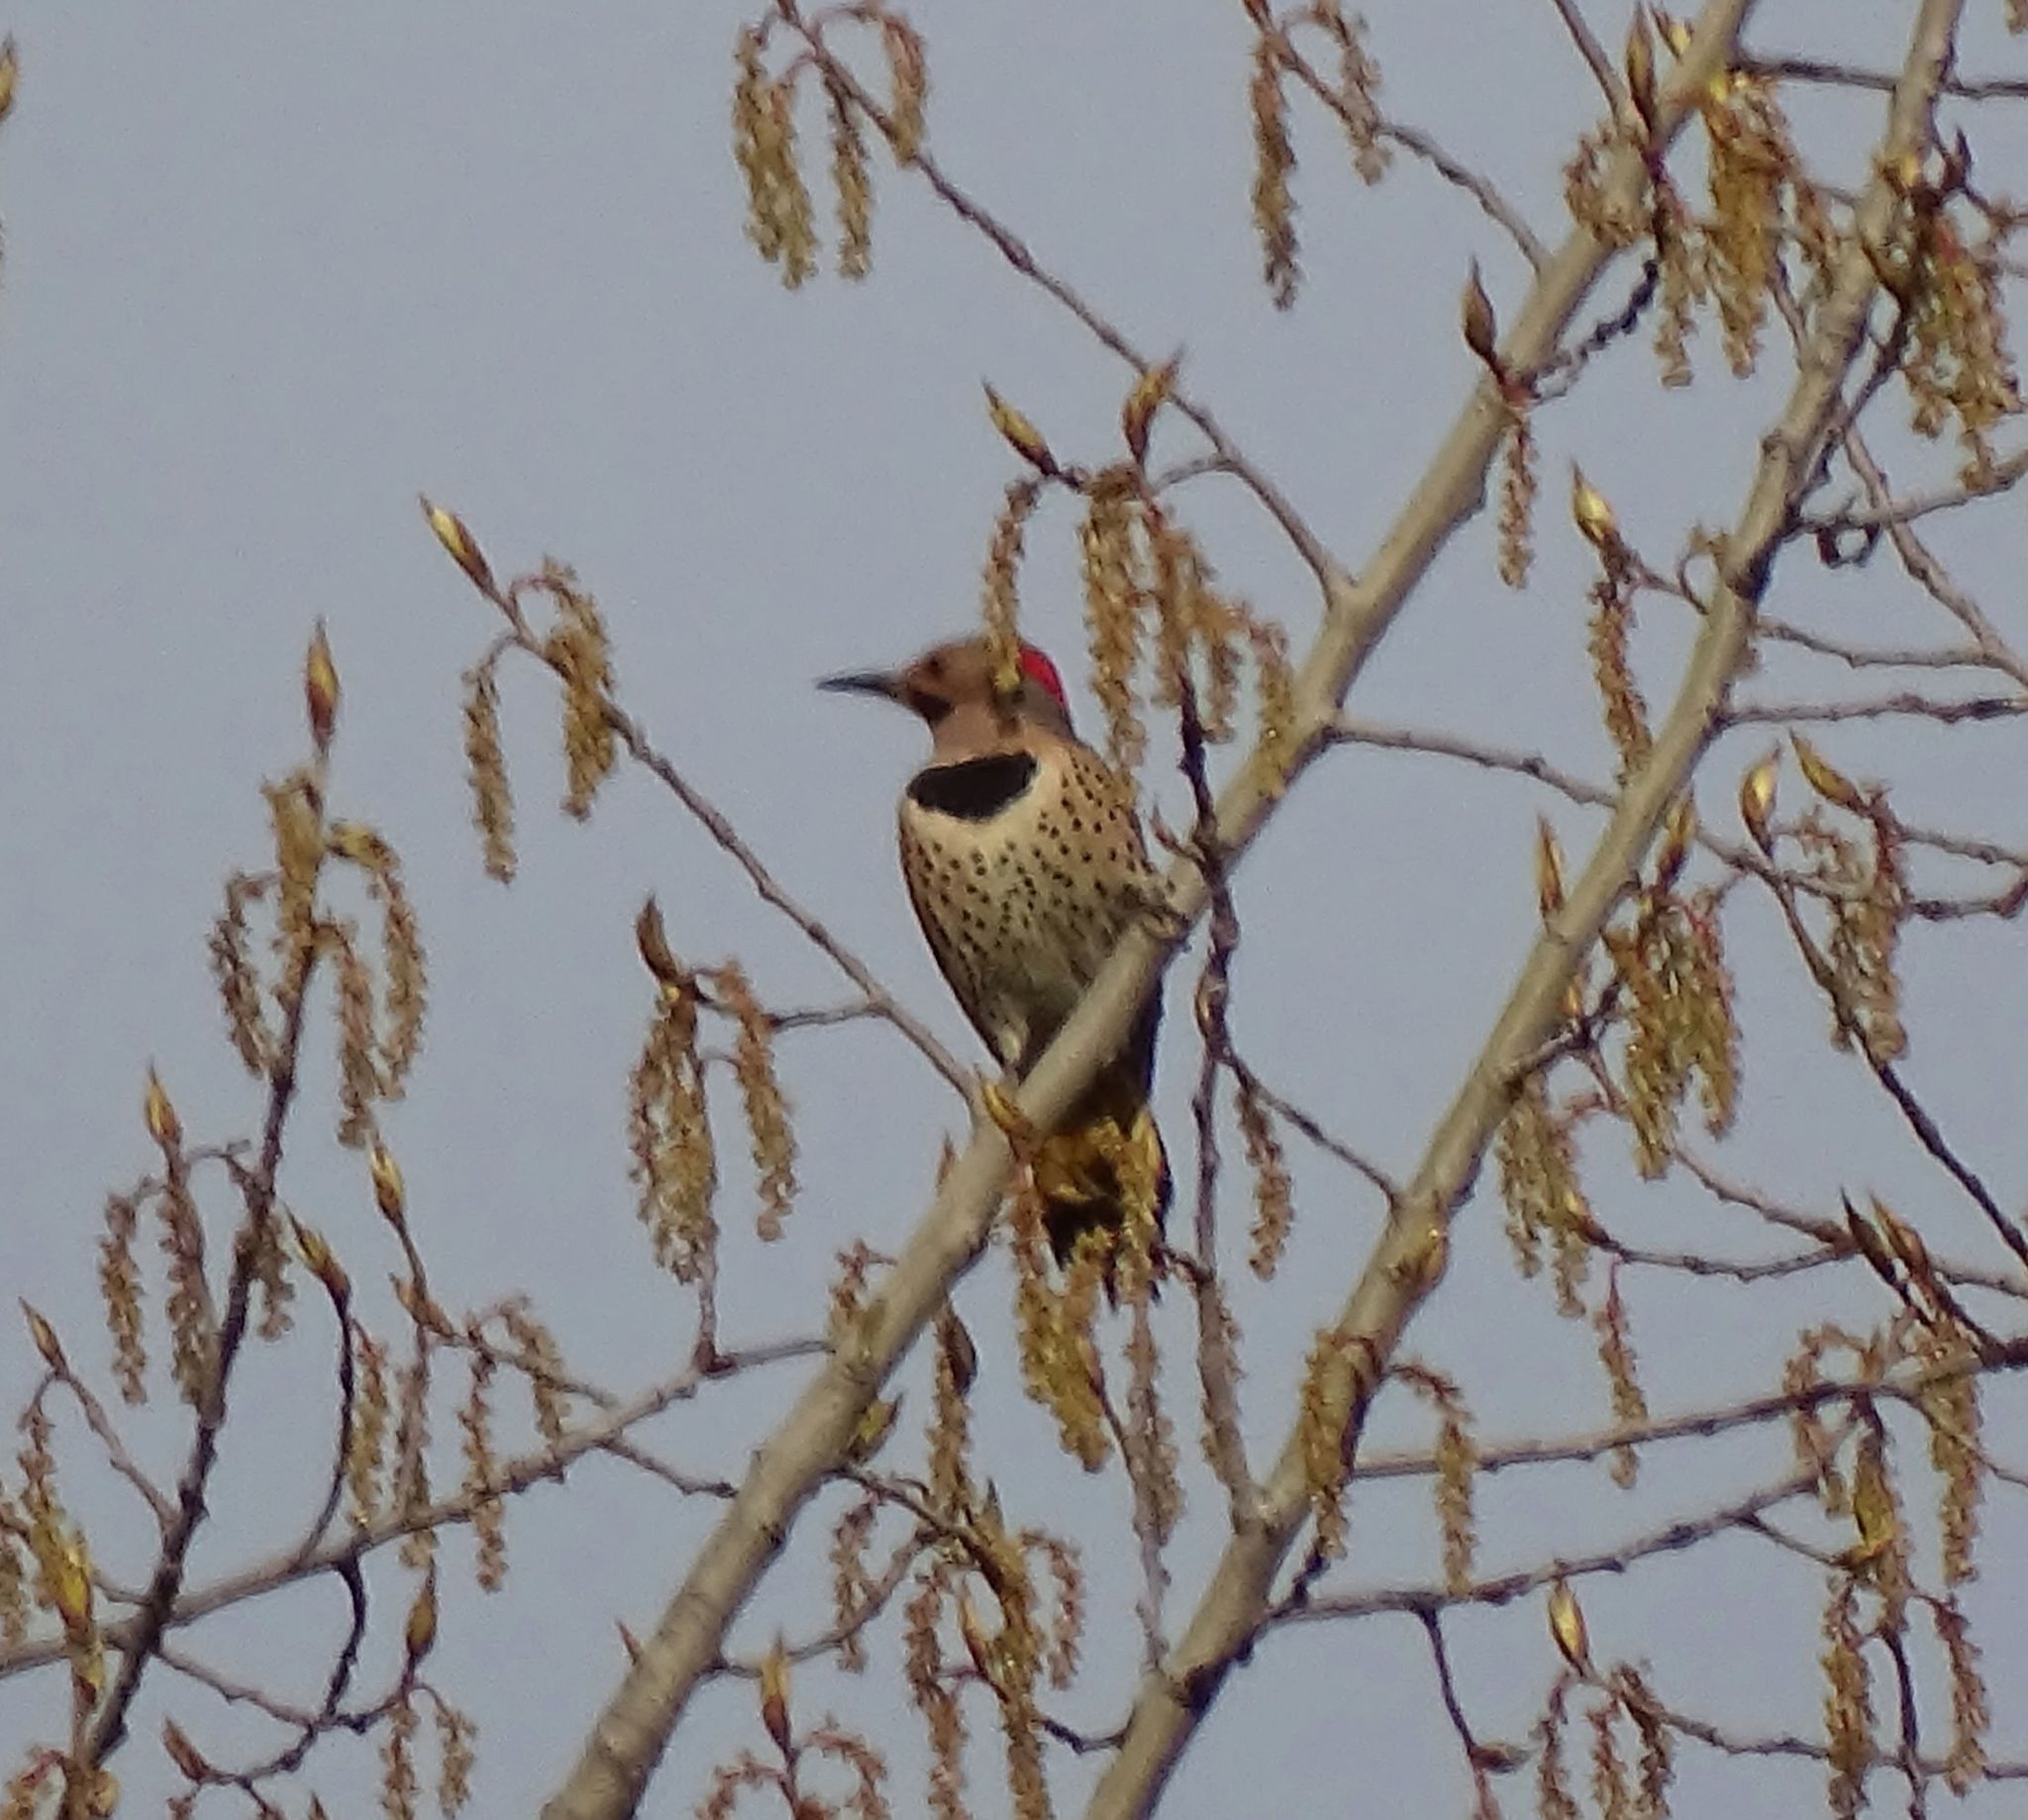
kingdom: Animalia
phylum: Chordata
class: Aves
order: Piciformes
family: Picidae
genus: Colaptes
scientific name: Colaptes auratus
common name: Northern flicker
